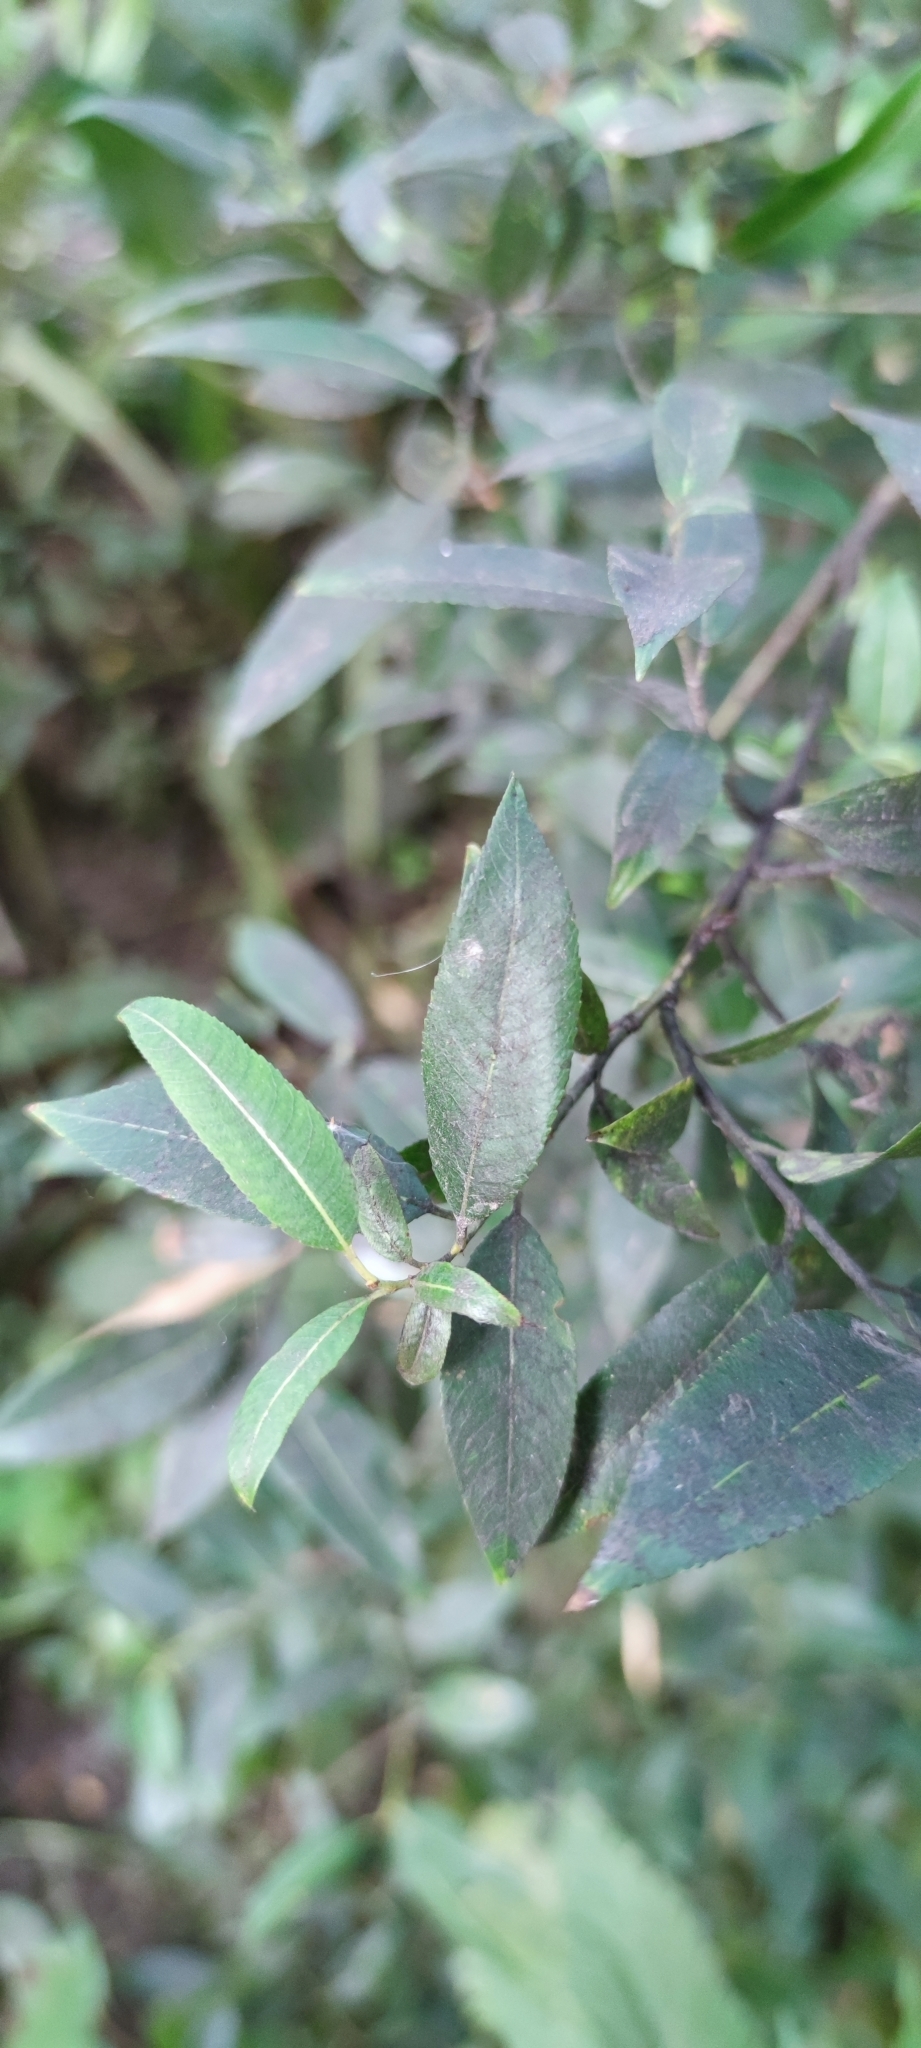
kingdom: Plantae
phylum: Tracheophyta
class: Magnoliopsida
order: Malpighiales
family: Salicaceae
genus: Salix
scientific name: Salix triandra
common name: Almond willow
